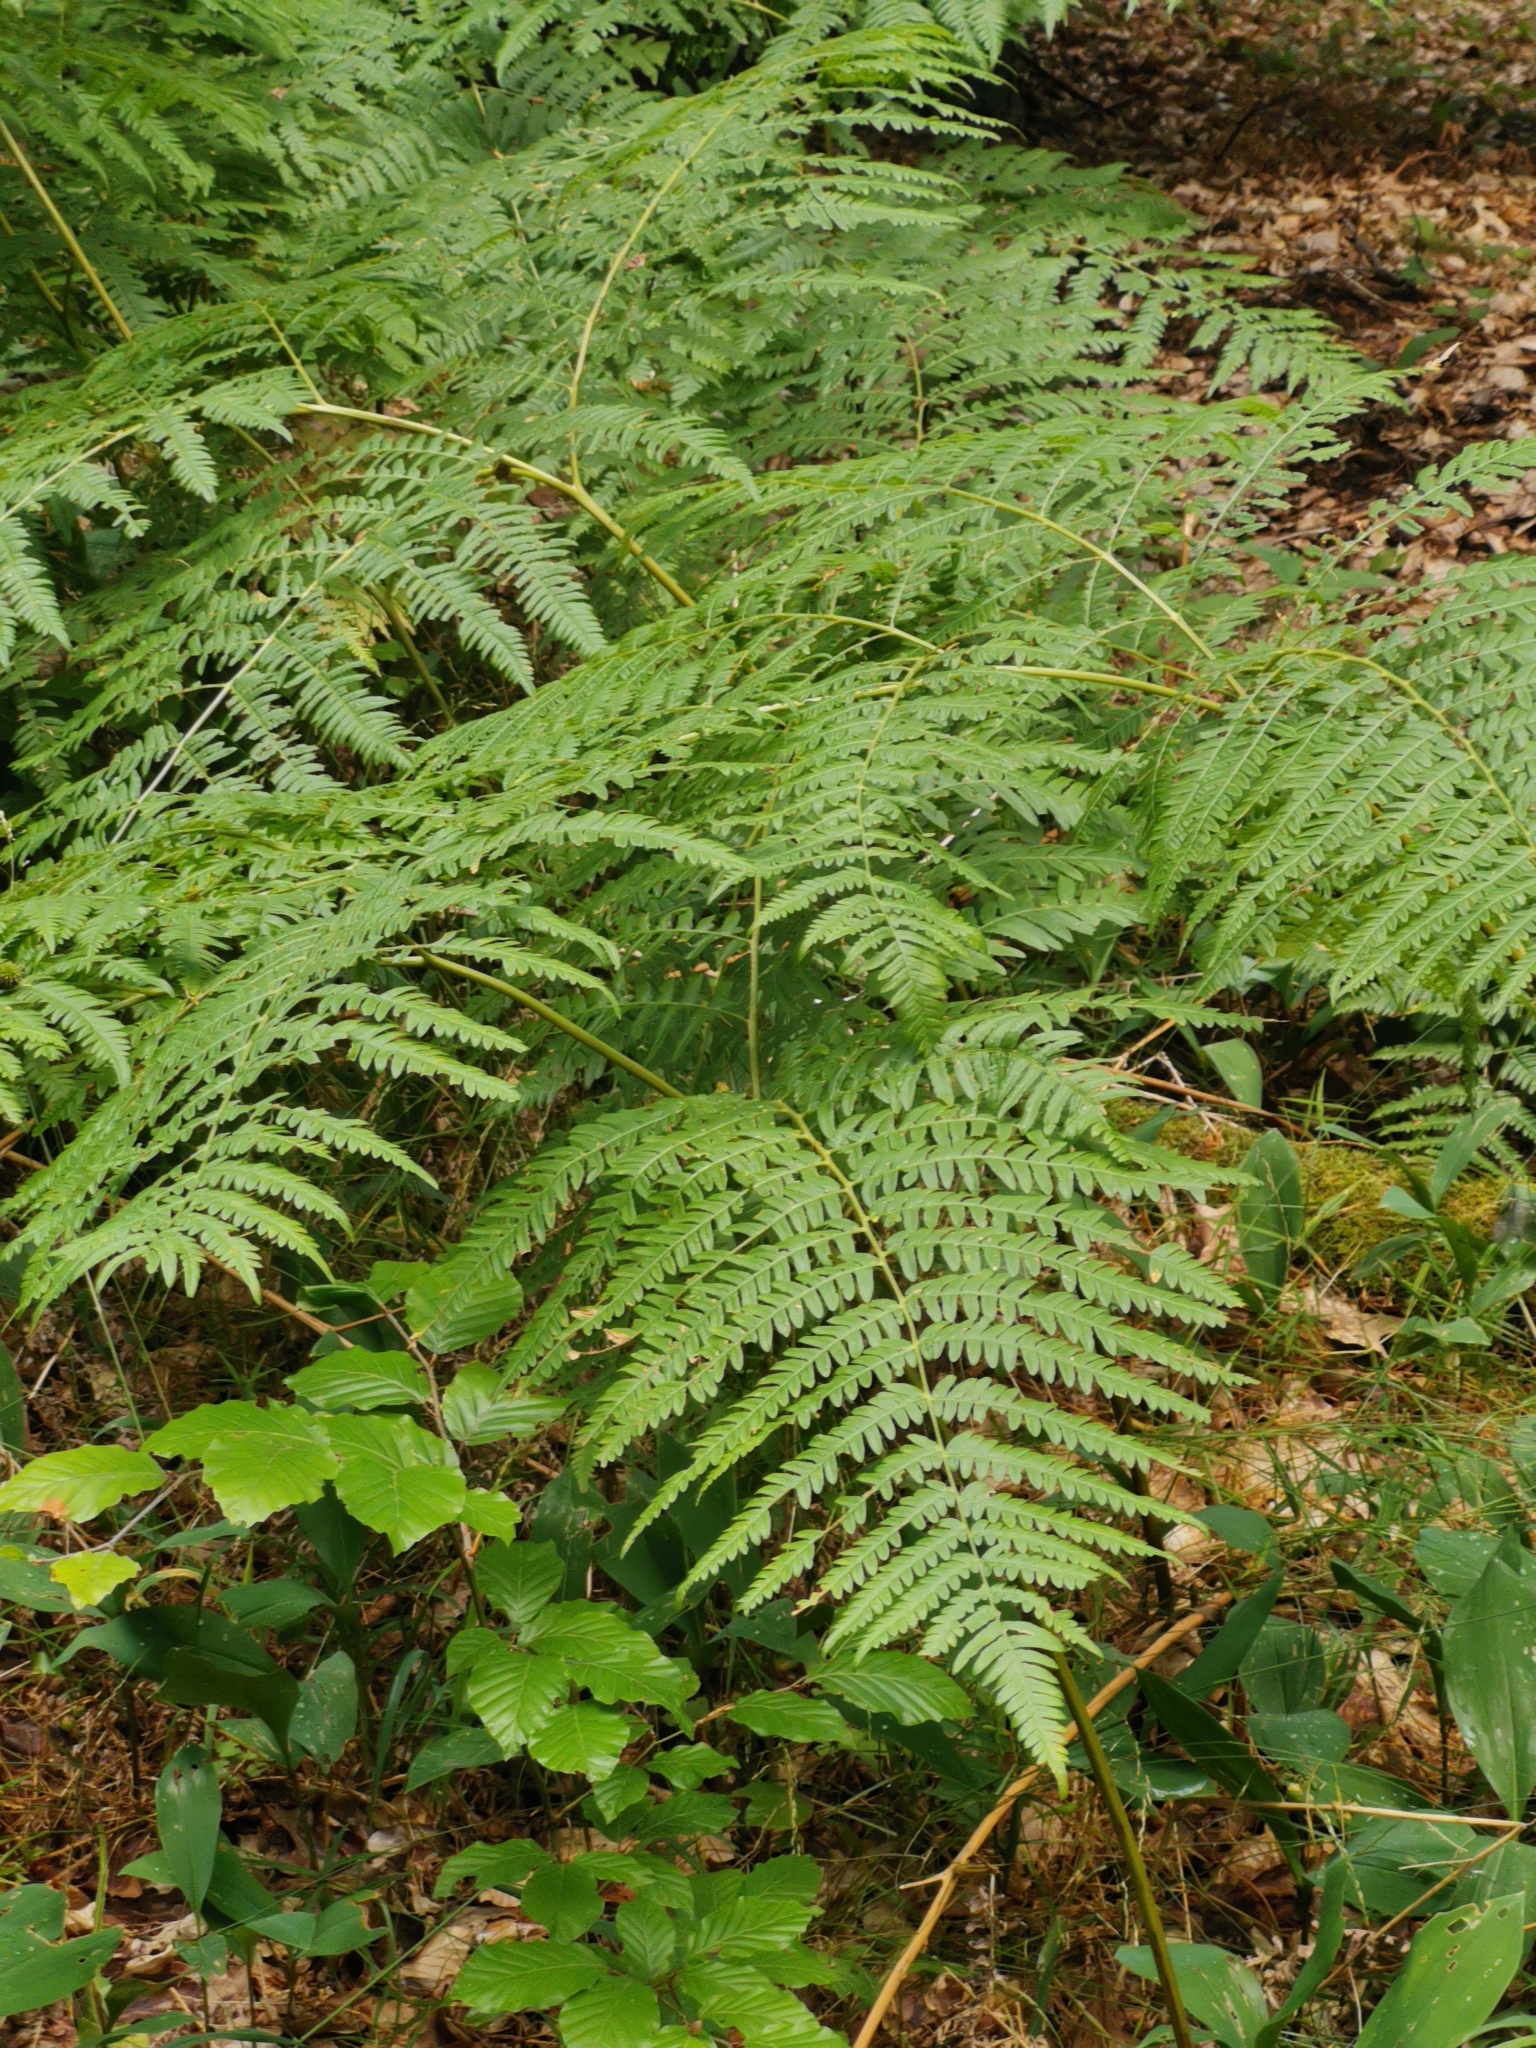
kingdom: Plantae
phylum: Tracheophyta
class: Polypodiopsida
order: Polypodiales
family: Dennstaedtiaceae
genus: Pteridium
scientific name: Pteridium aquilinum
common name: Bracken
